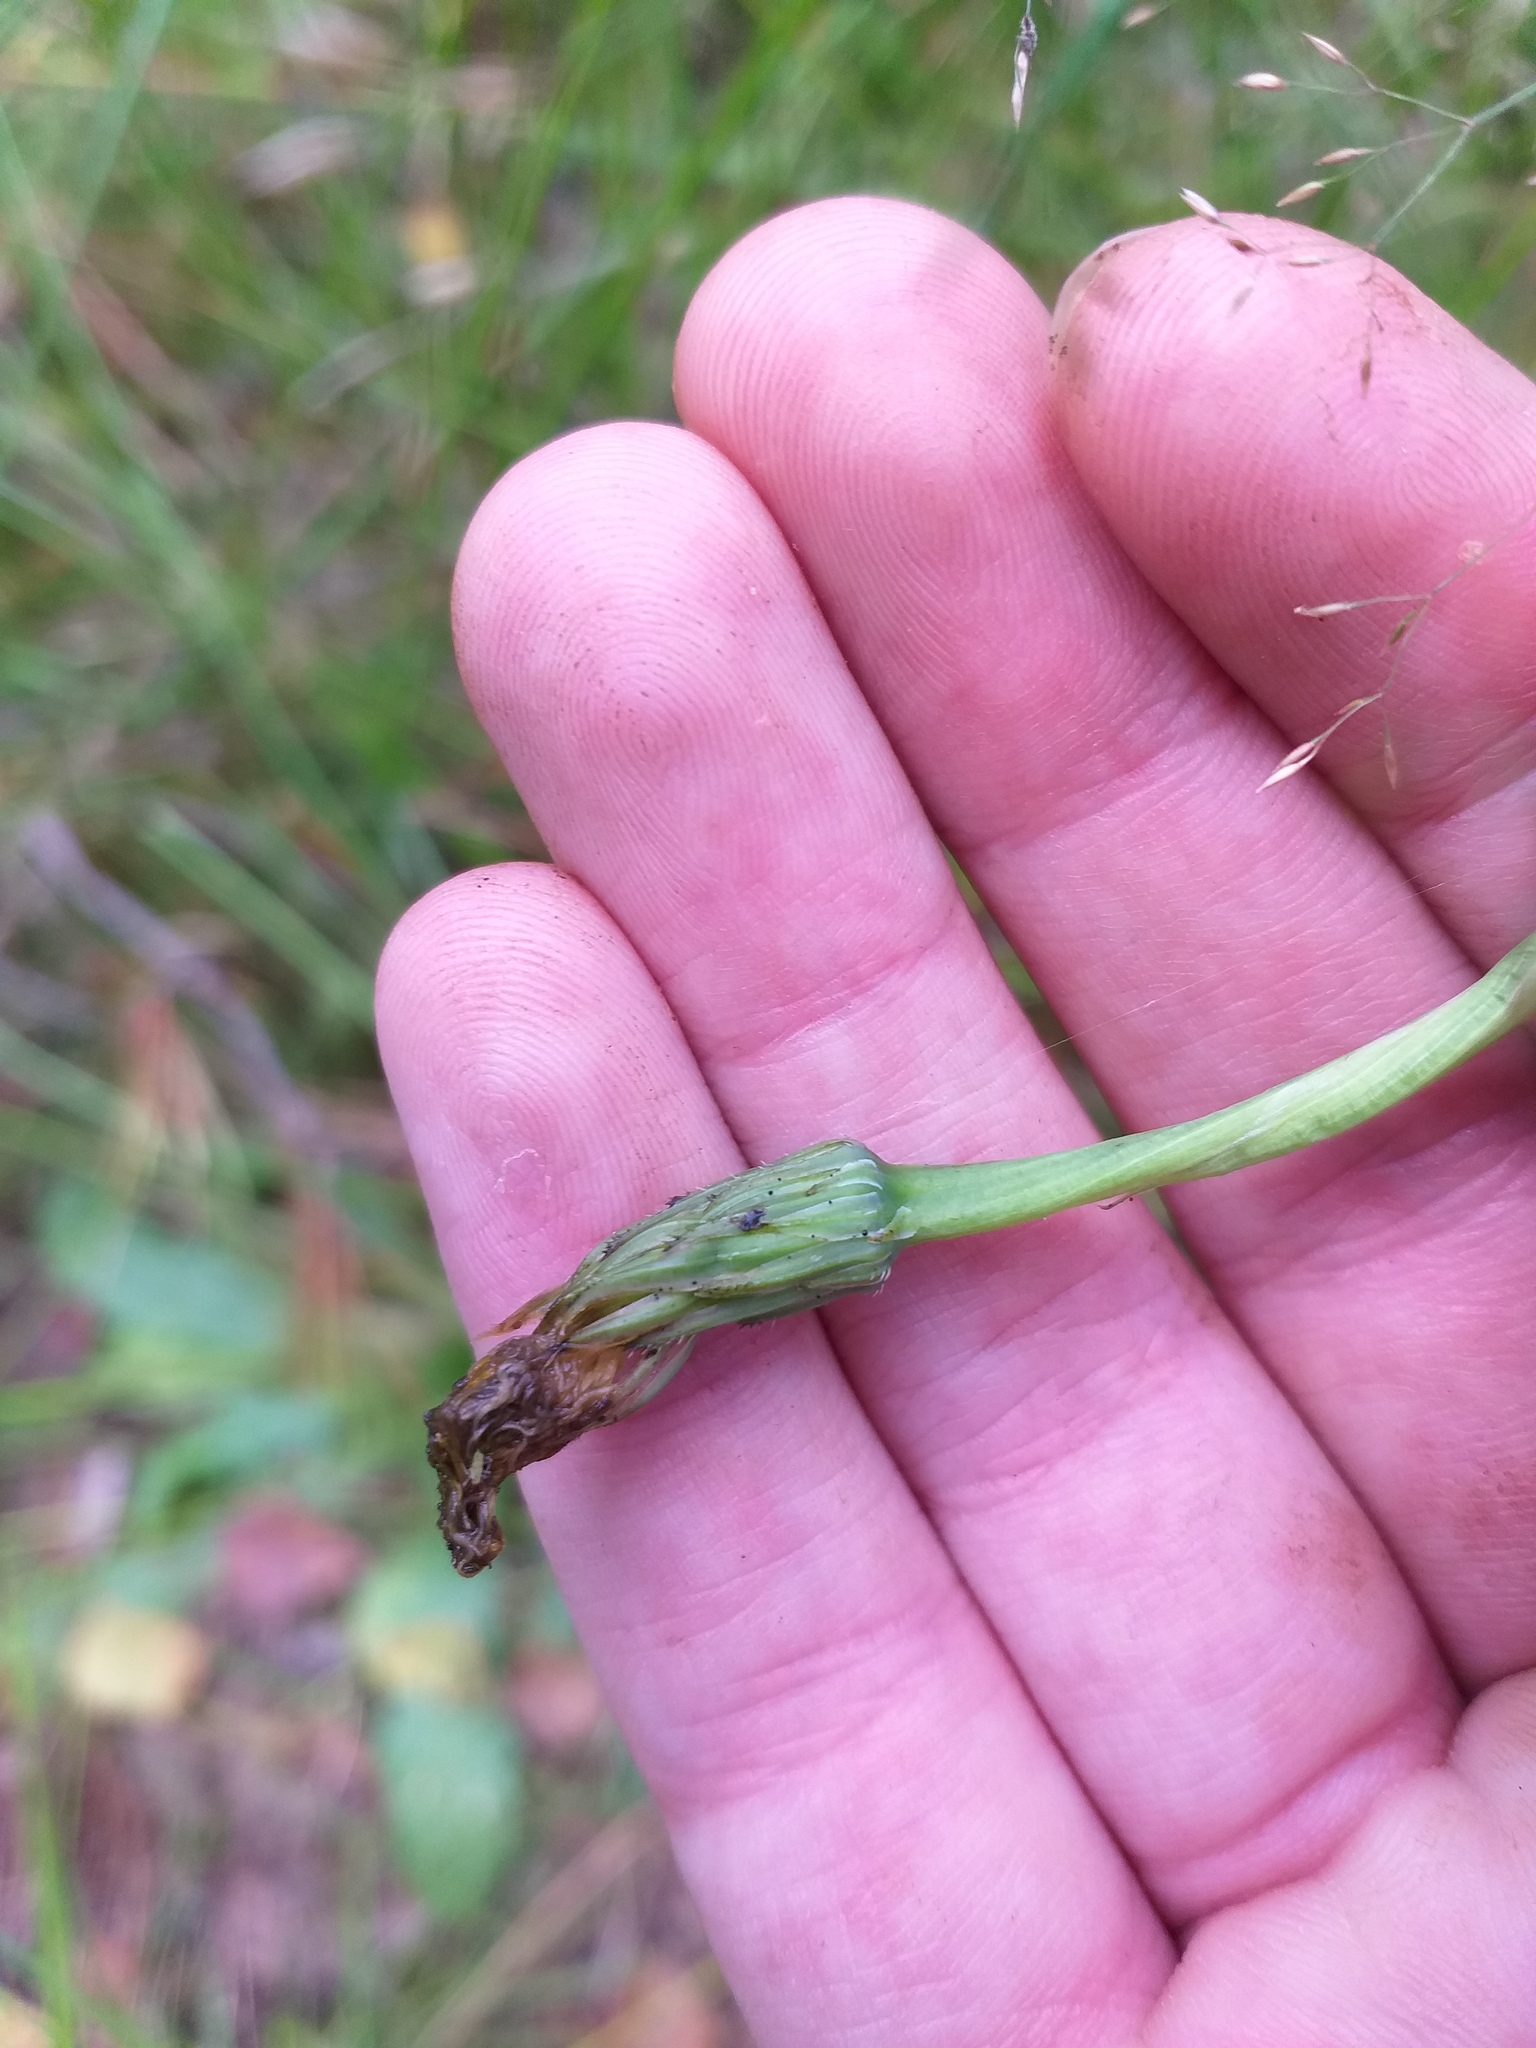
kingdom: Plantae
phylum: Tracheophyta
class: Magnoliopsida
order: Asterales
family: Asteraceae
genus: Hypochaeris
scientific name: Hypochaeris radicata
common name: Flatweed
